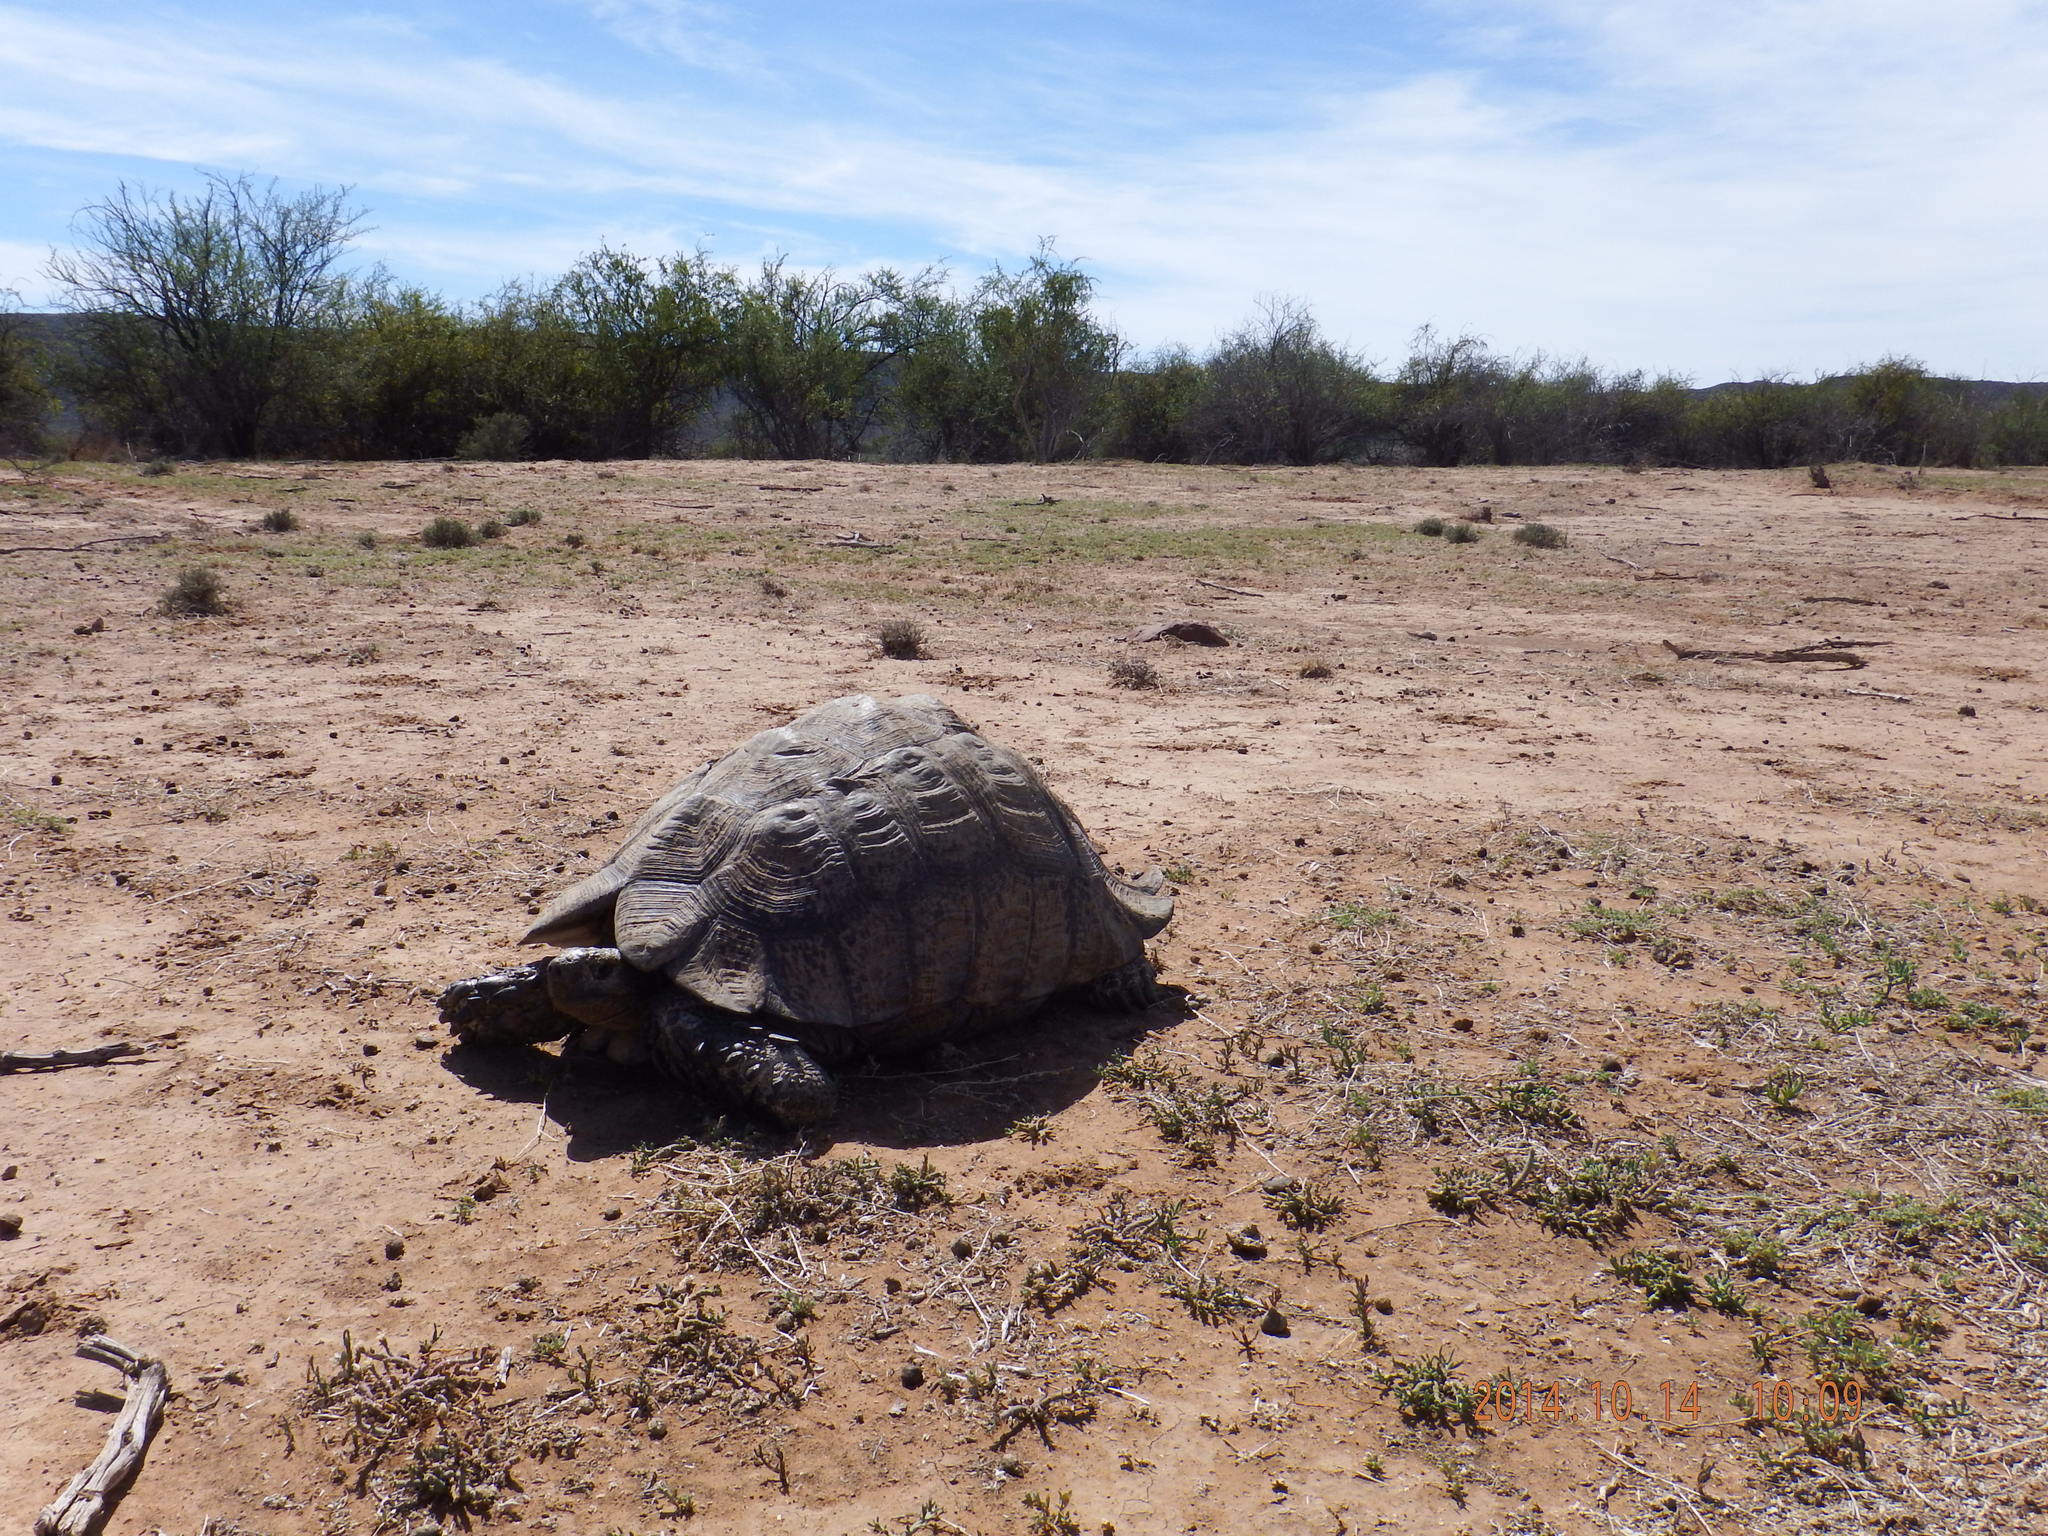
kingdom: Animalia
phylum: Chordata
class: Testudines
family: Testudinidae
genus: Stigmochelys
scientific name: Stigmochelys pardalis
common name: Leopard tortoise
